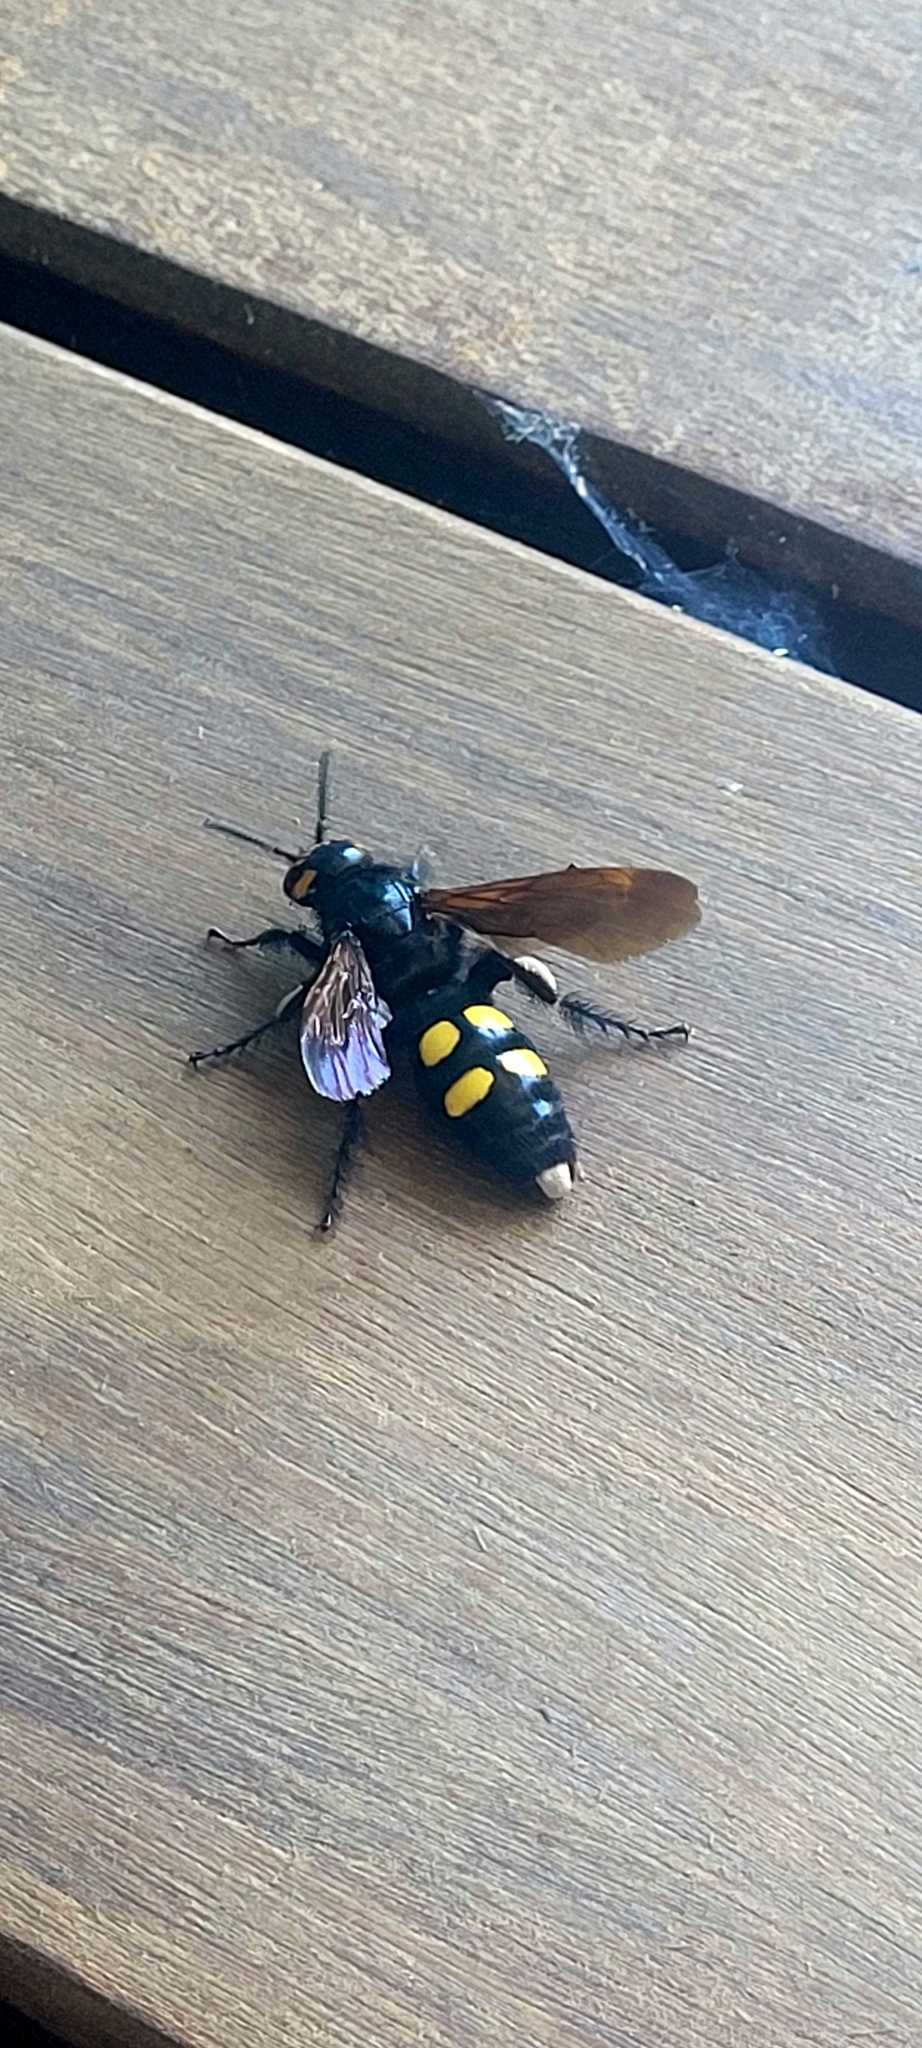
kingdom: Animalia
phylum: Arthropoda
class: Insecta
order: Hymenoptera
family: Scoliidae
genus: Megascolia
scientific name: Megascolia maculata
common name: Mammoth wasp
